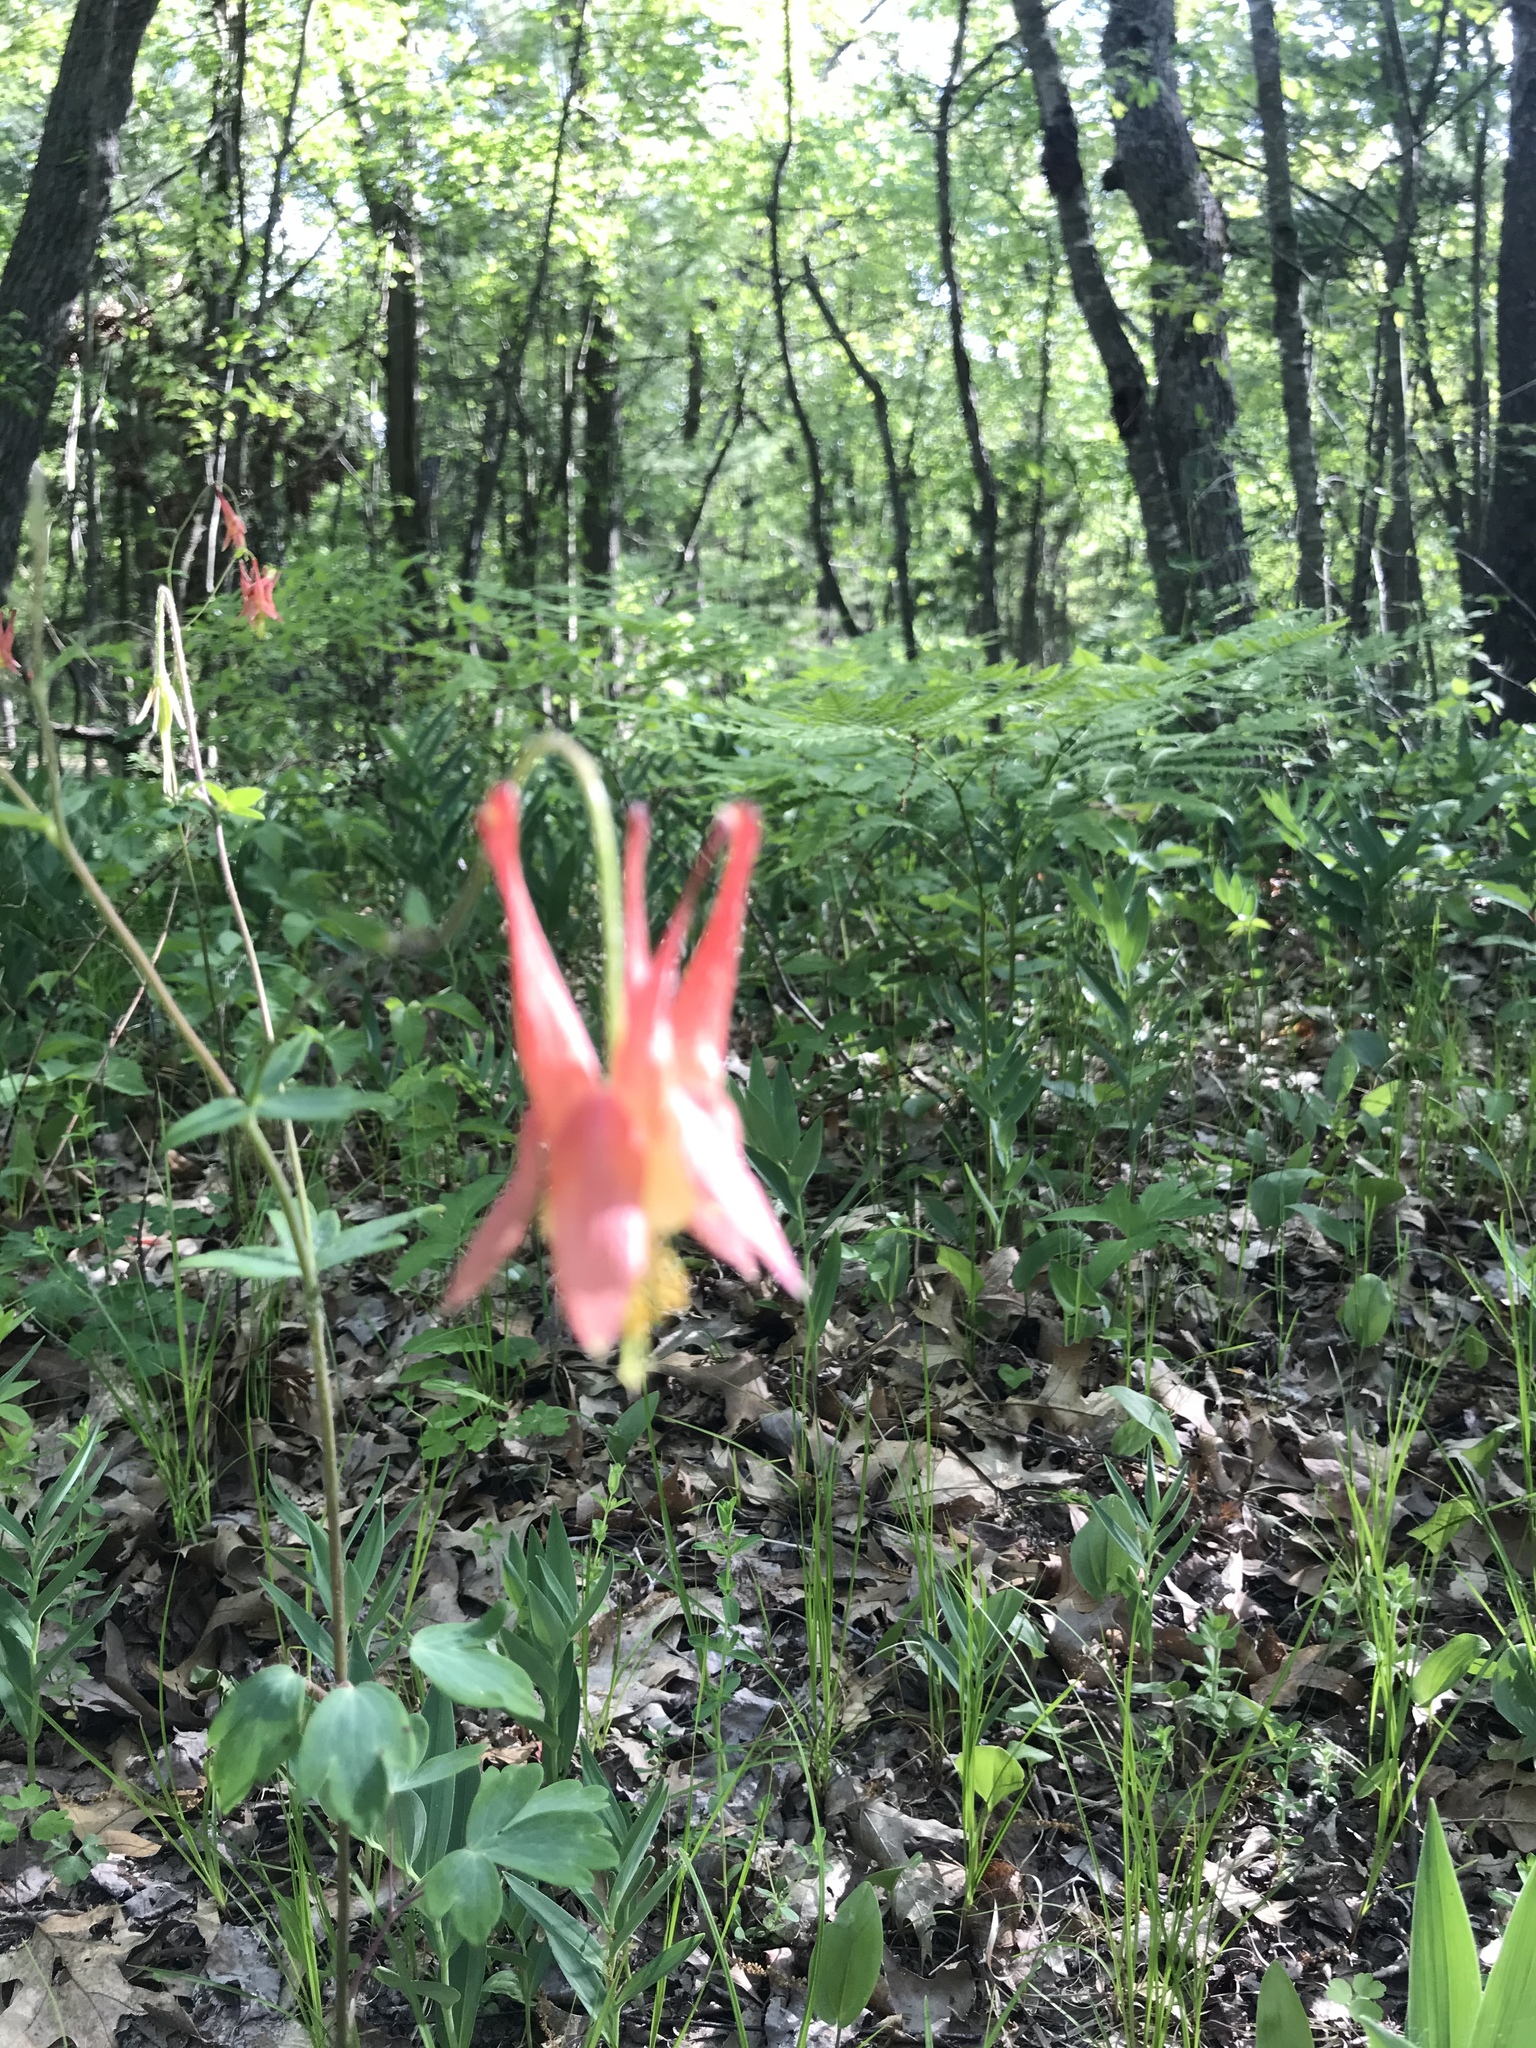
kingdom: Plantae
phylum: Tracheophyta
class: Magnoliopsida
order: Ranunculales
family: Ranunculaceae
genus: Aquilegia
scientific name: Aquilegia canadensis
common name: American columbine
